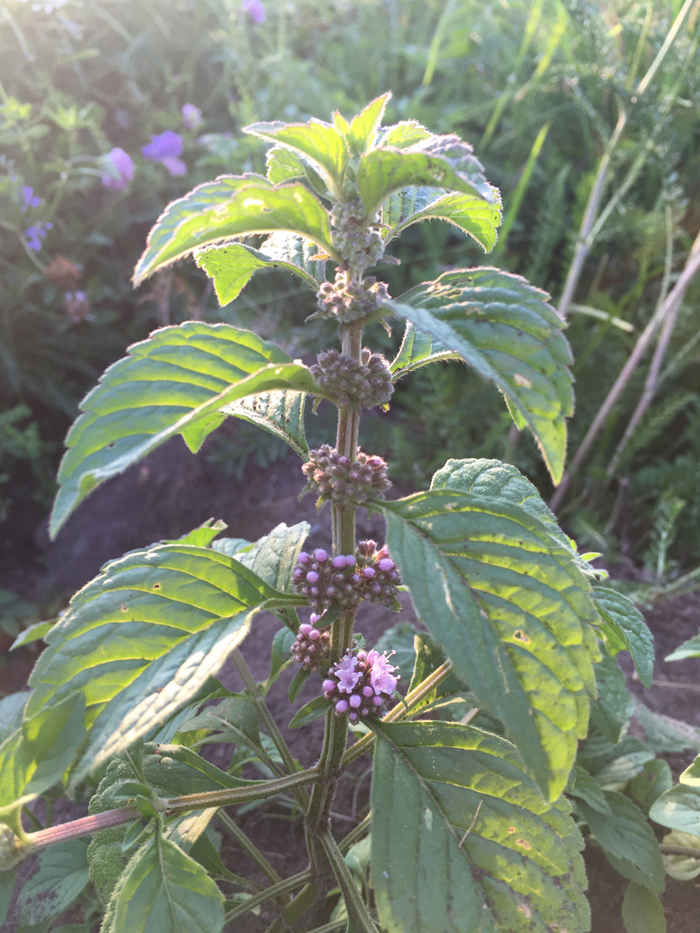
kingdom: Plantae
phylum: Tracheophyta
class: Magnoliopsida
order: Lamiales
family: Lamiaceae
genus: Mentha
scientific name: Mentha arvensis
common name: Corn mint
